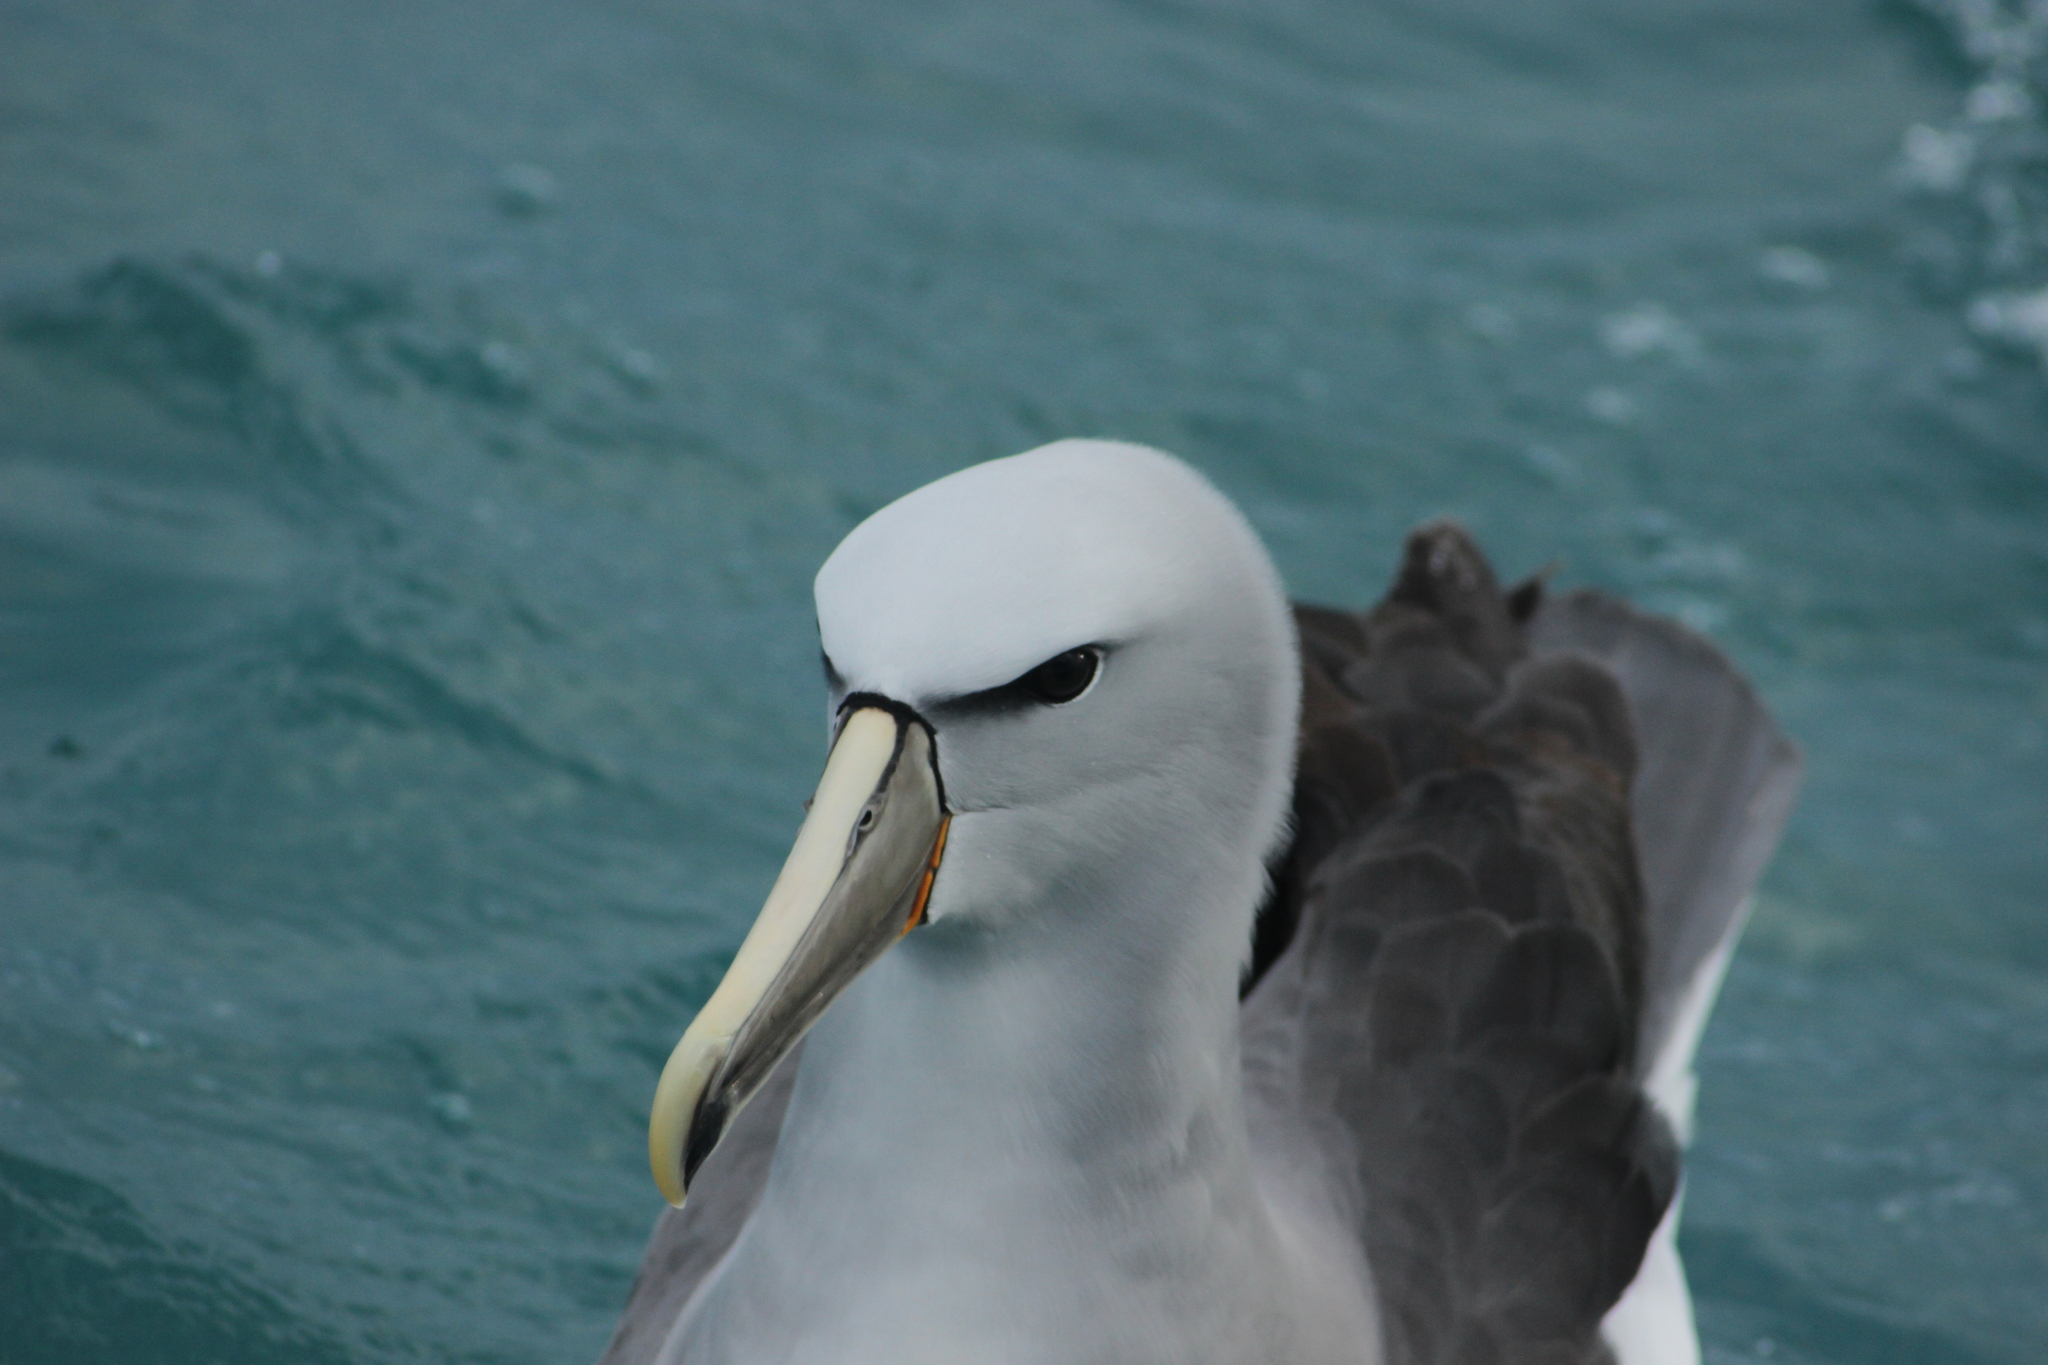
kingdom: Animalia
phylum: Chordata
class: Aves
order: Procellariiformes
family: Diomedeidae
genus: Thalassarche
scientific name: Thalassarche salvini
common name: Salvin's albatross
